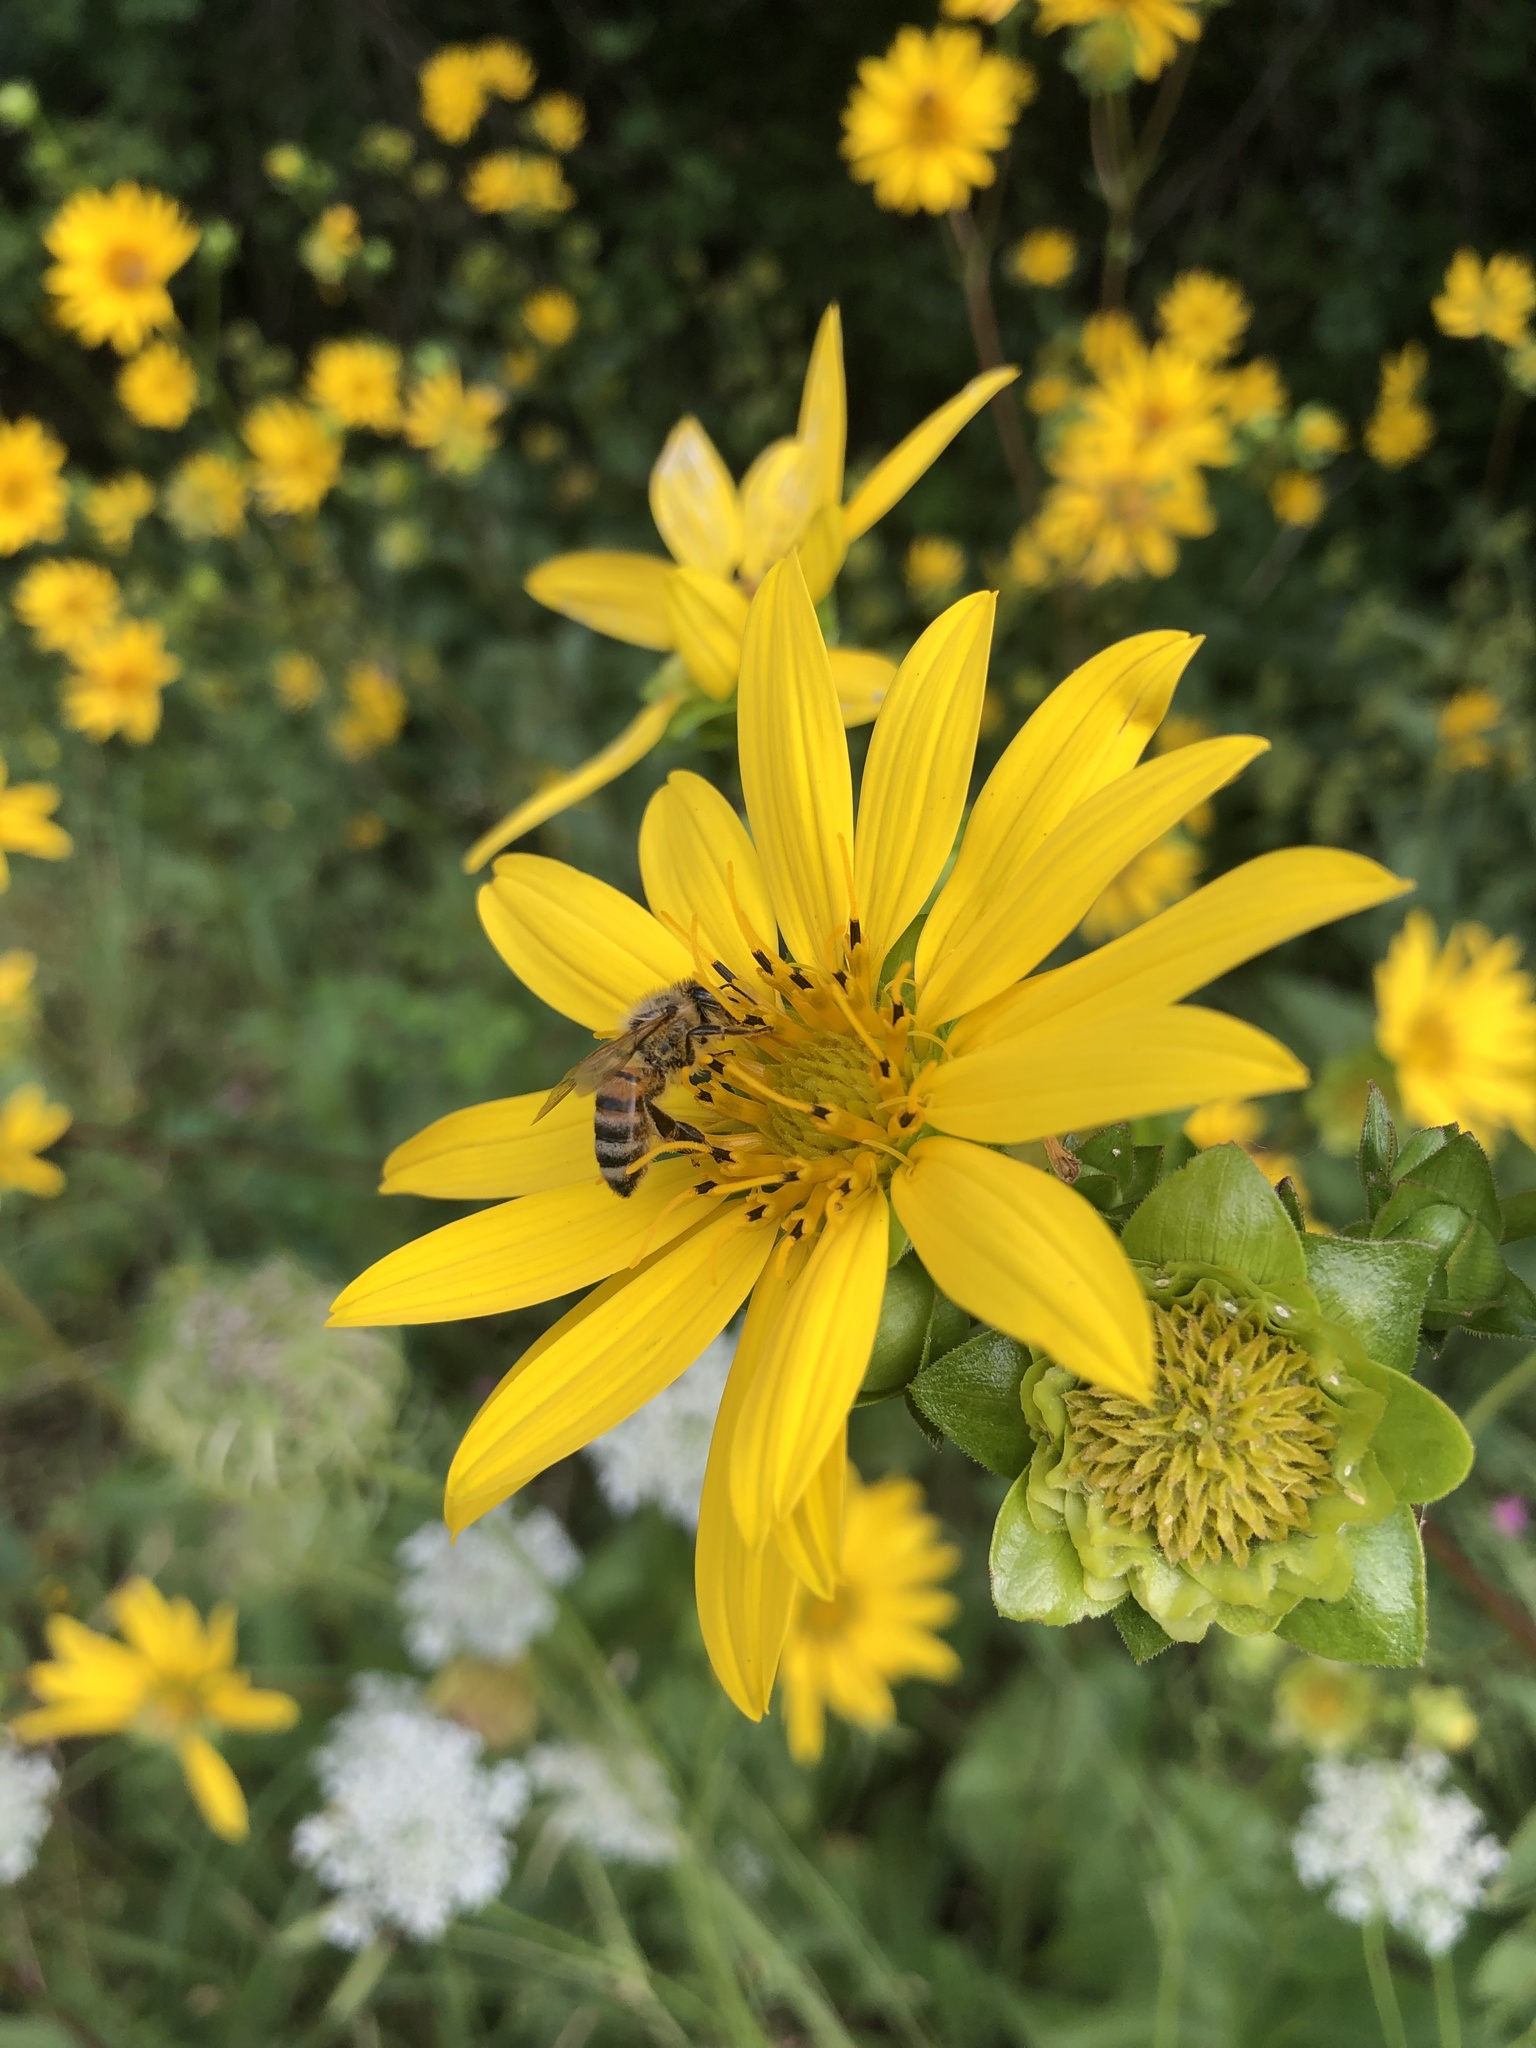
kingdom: Animalia
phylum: Arthropoda
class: Insecta
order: Hymenoptera
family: Apidae
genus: Apis
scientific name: Apis mellifera
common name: Honey bee
